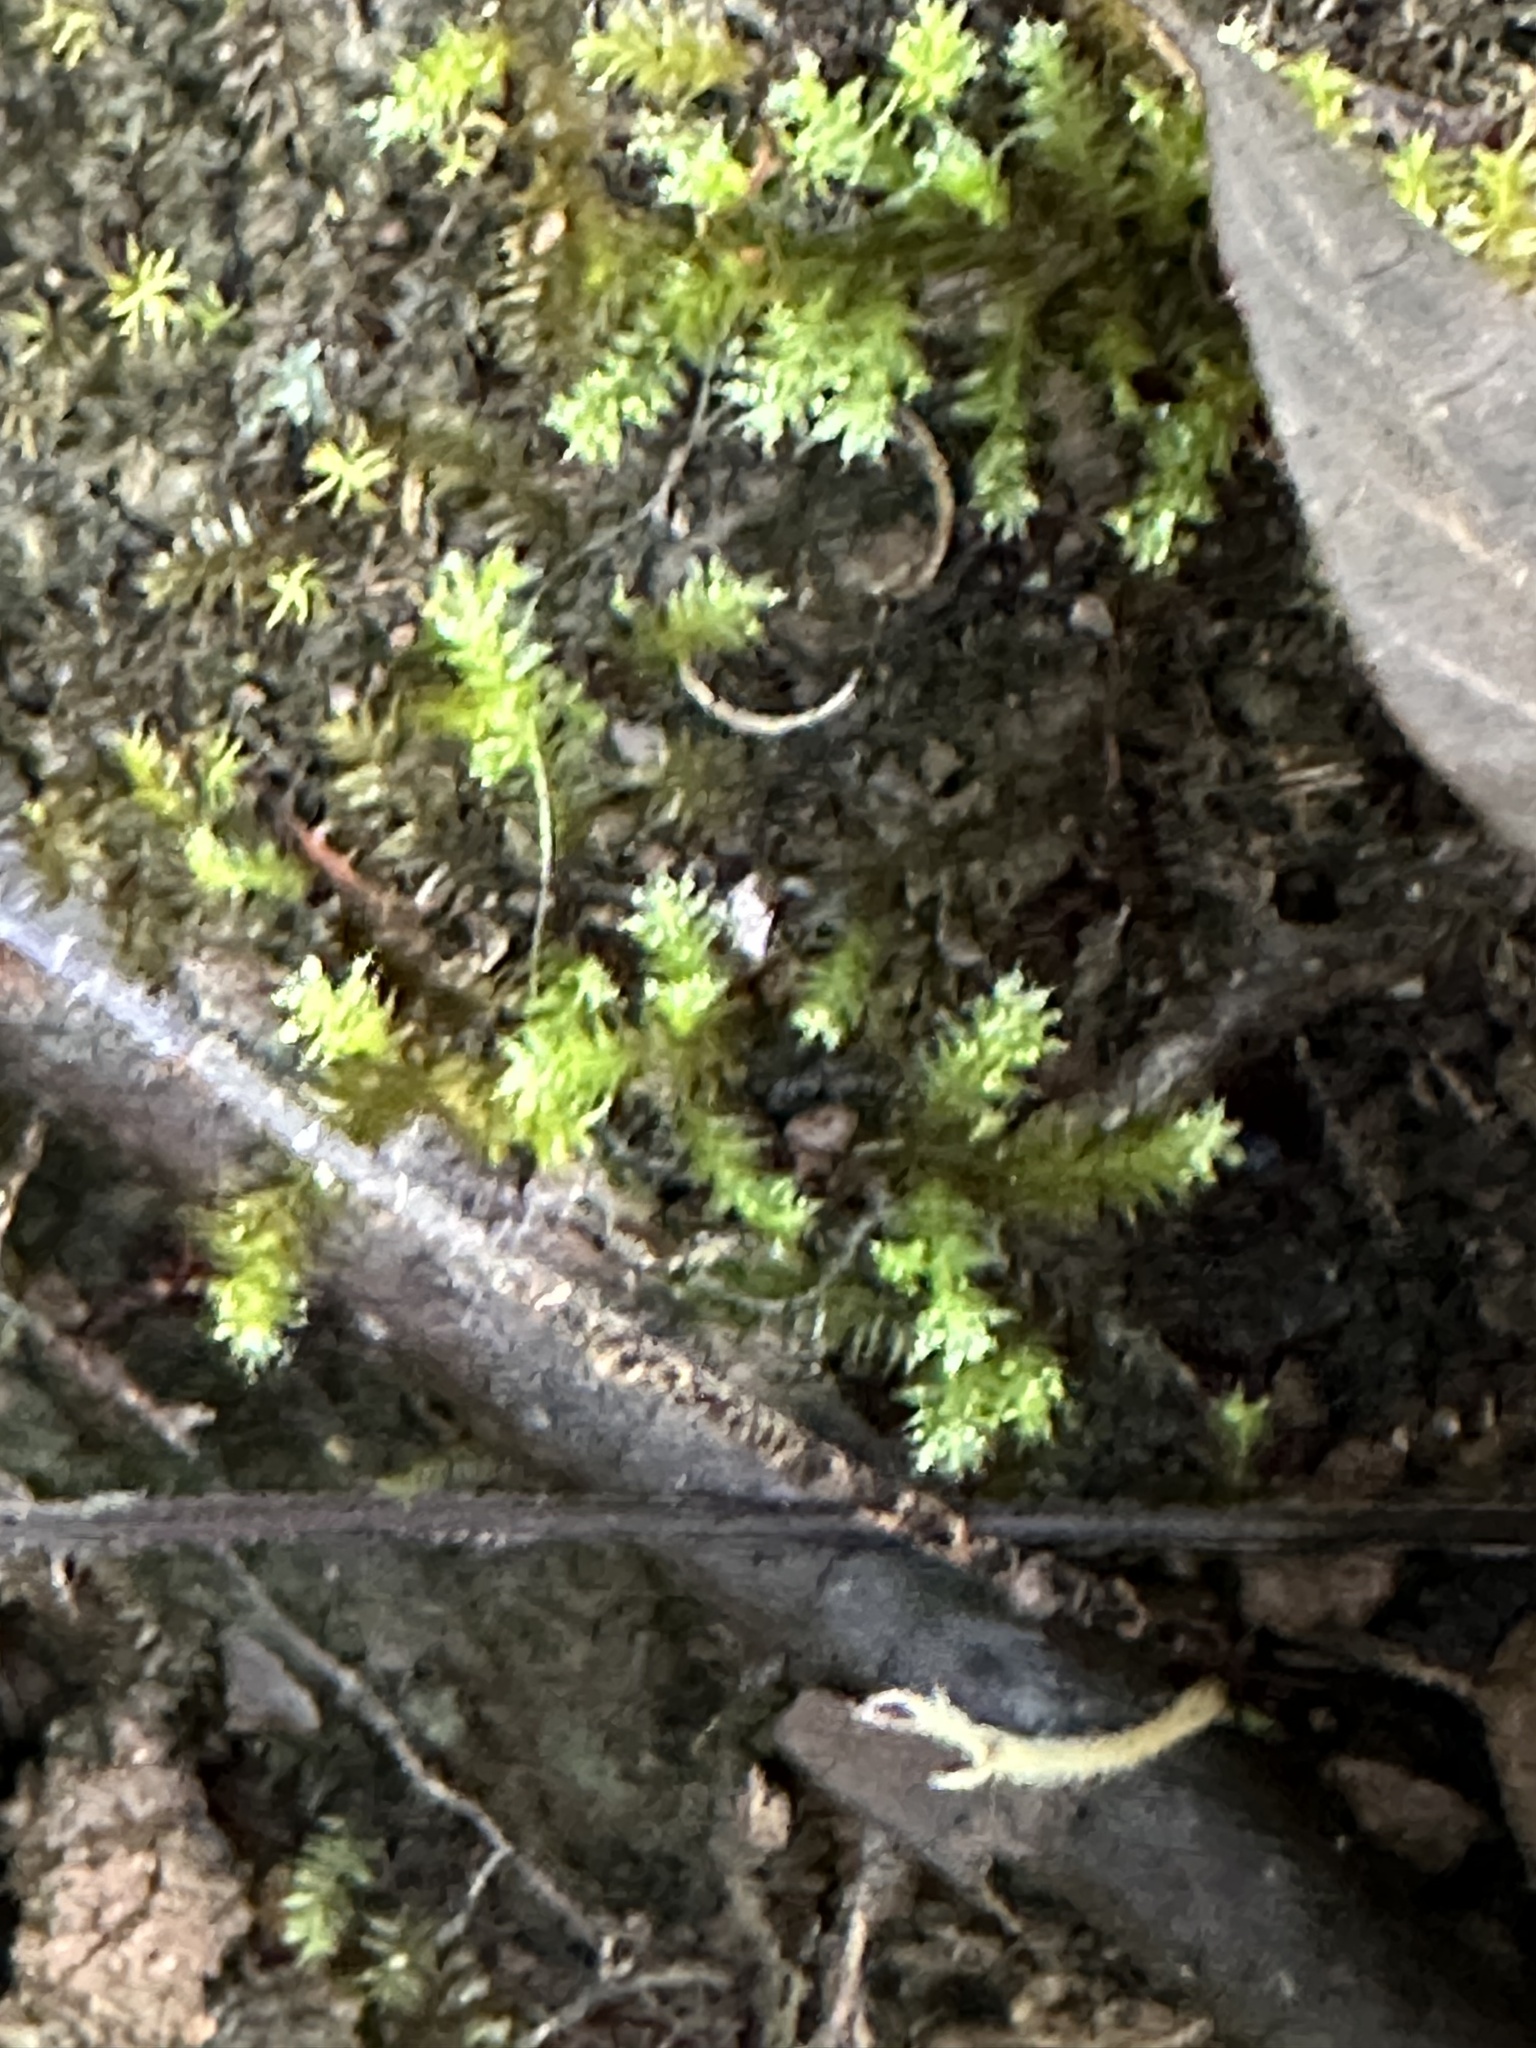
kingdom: Plantae
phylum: Tracheophyta
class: Polypodiopsida
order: Polypodiales
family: Pteridaceae
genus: Cheilanthes
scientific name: Cheilanthes viridis
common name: Green cliffbrake
